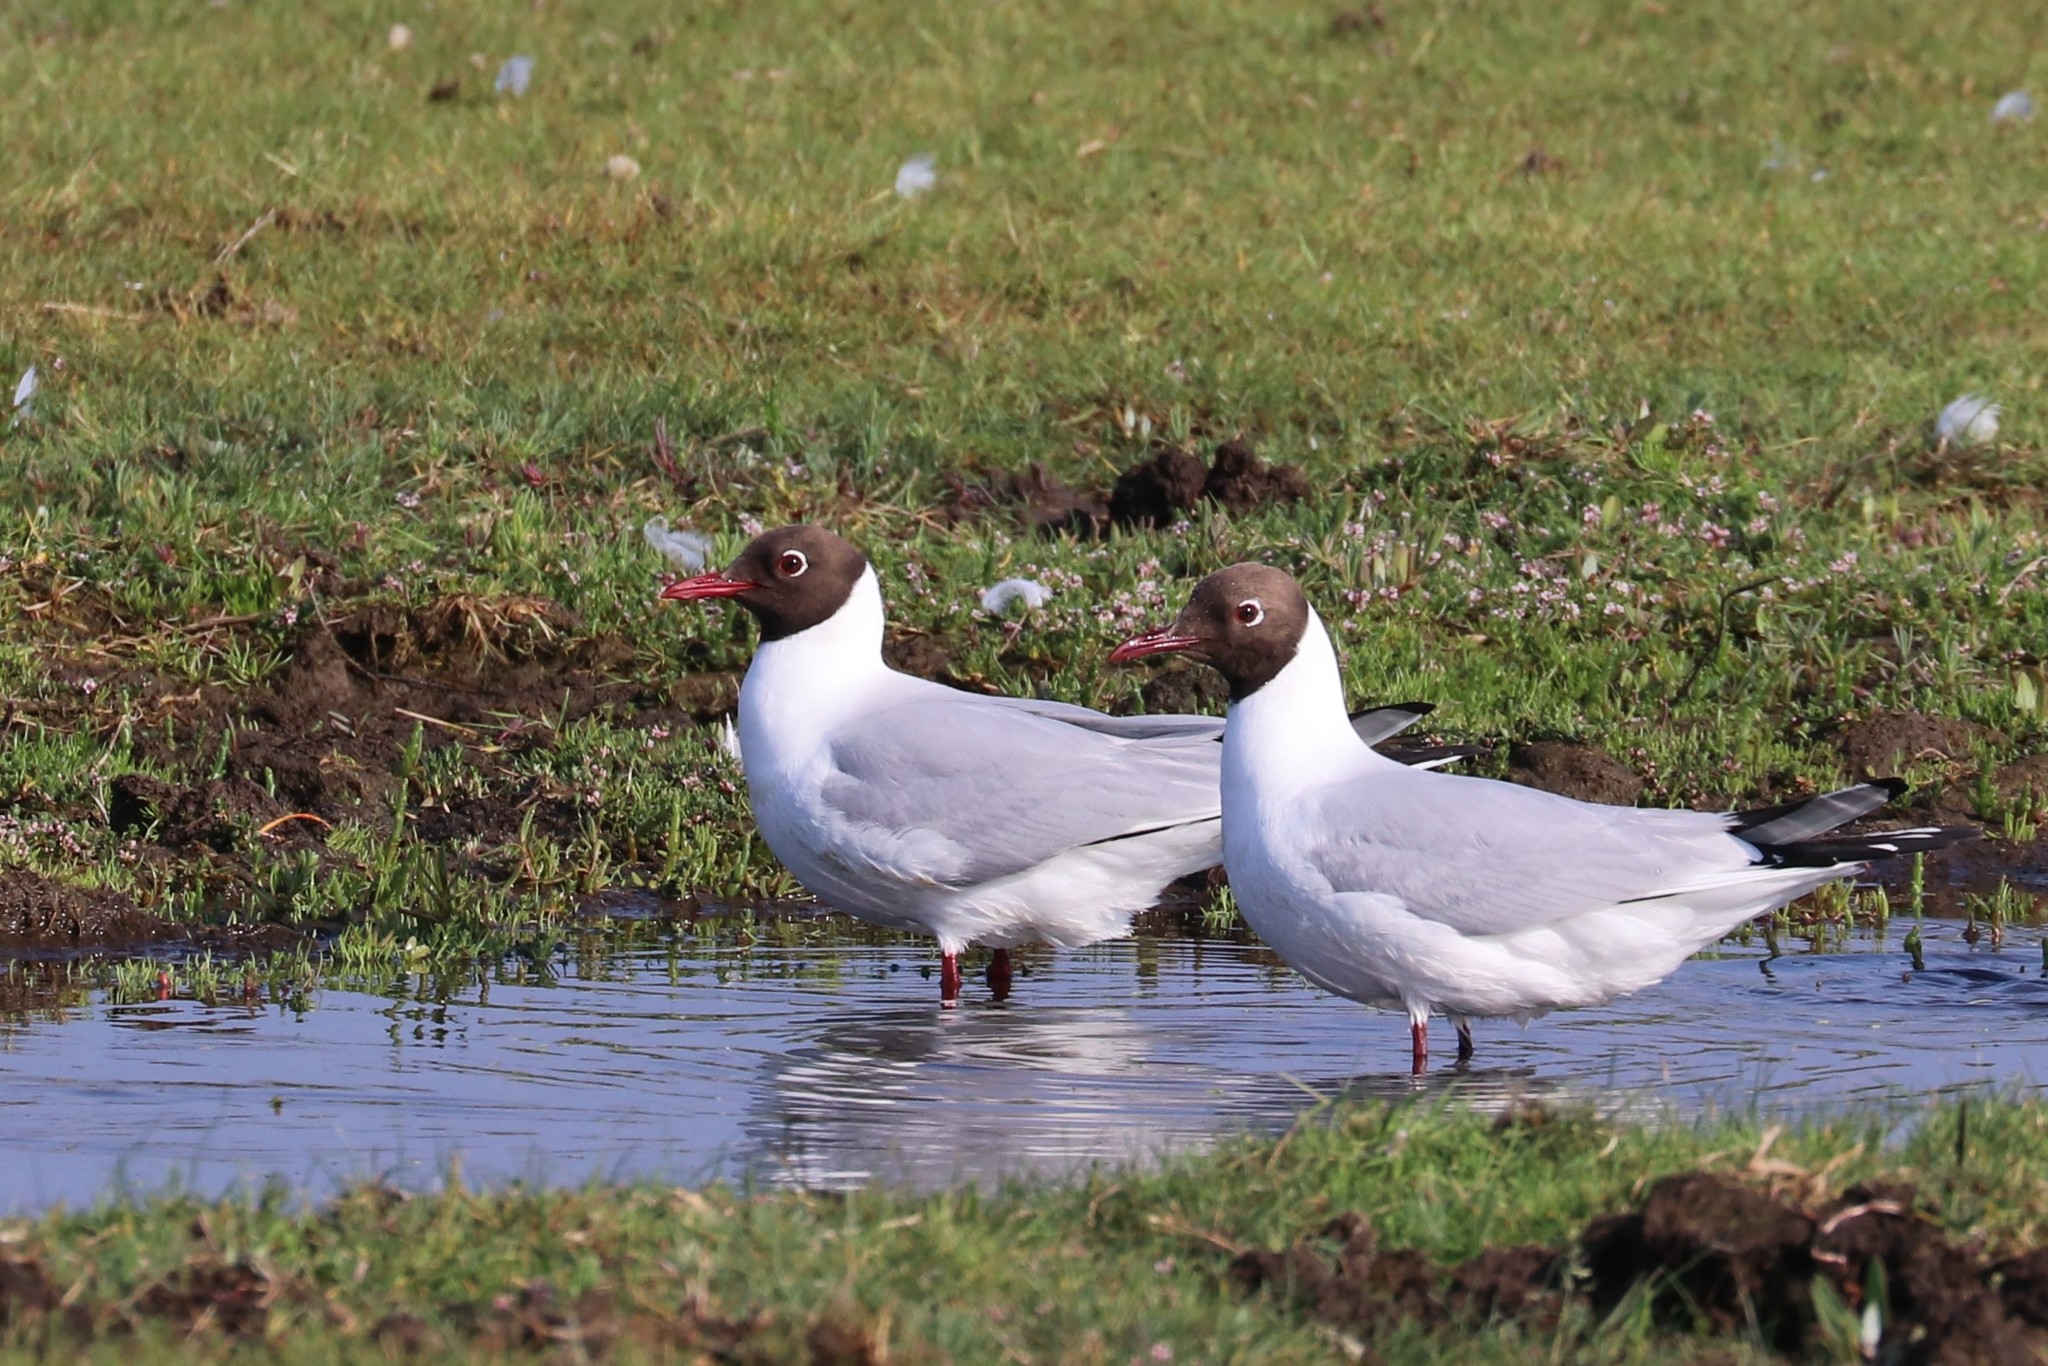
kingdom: Animalia
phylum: Chordata
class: Aves
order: Charadriiformes
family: Laridae
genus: Chroicocephalus
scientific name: Chroicocephalus ridibundus
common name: Black-headed gull
